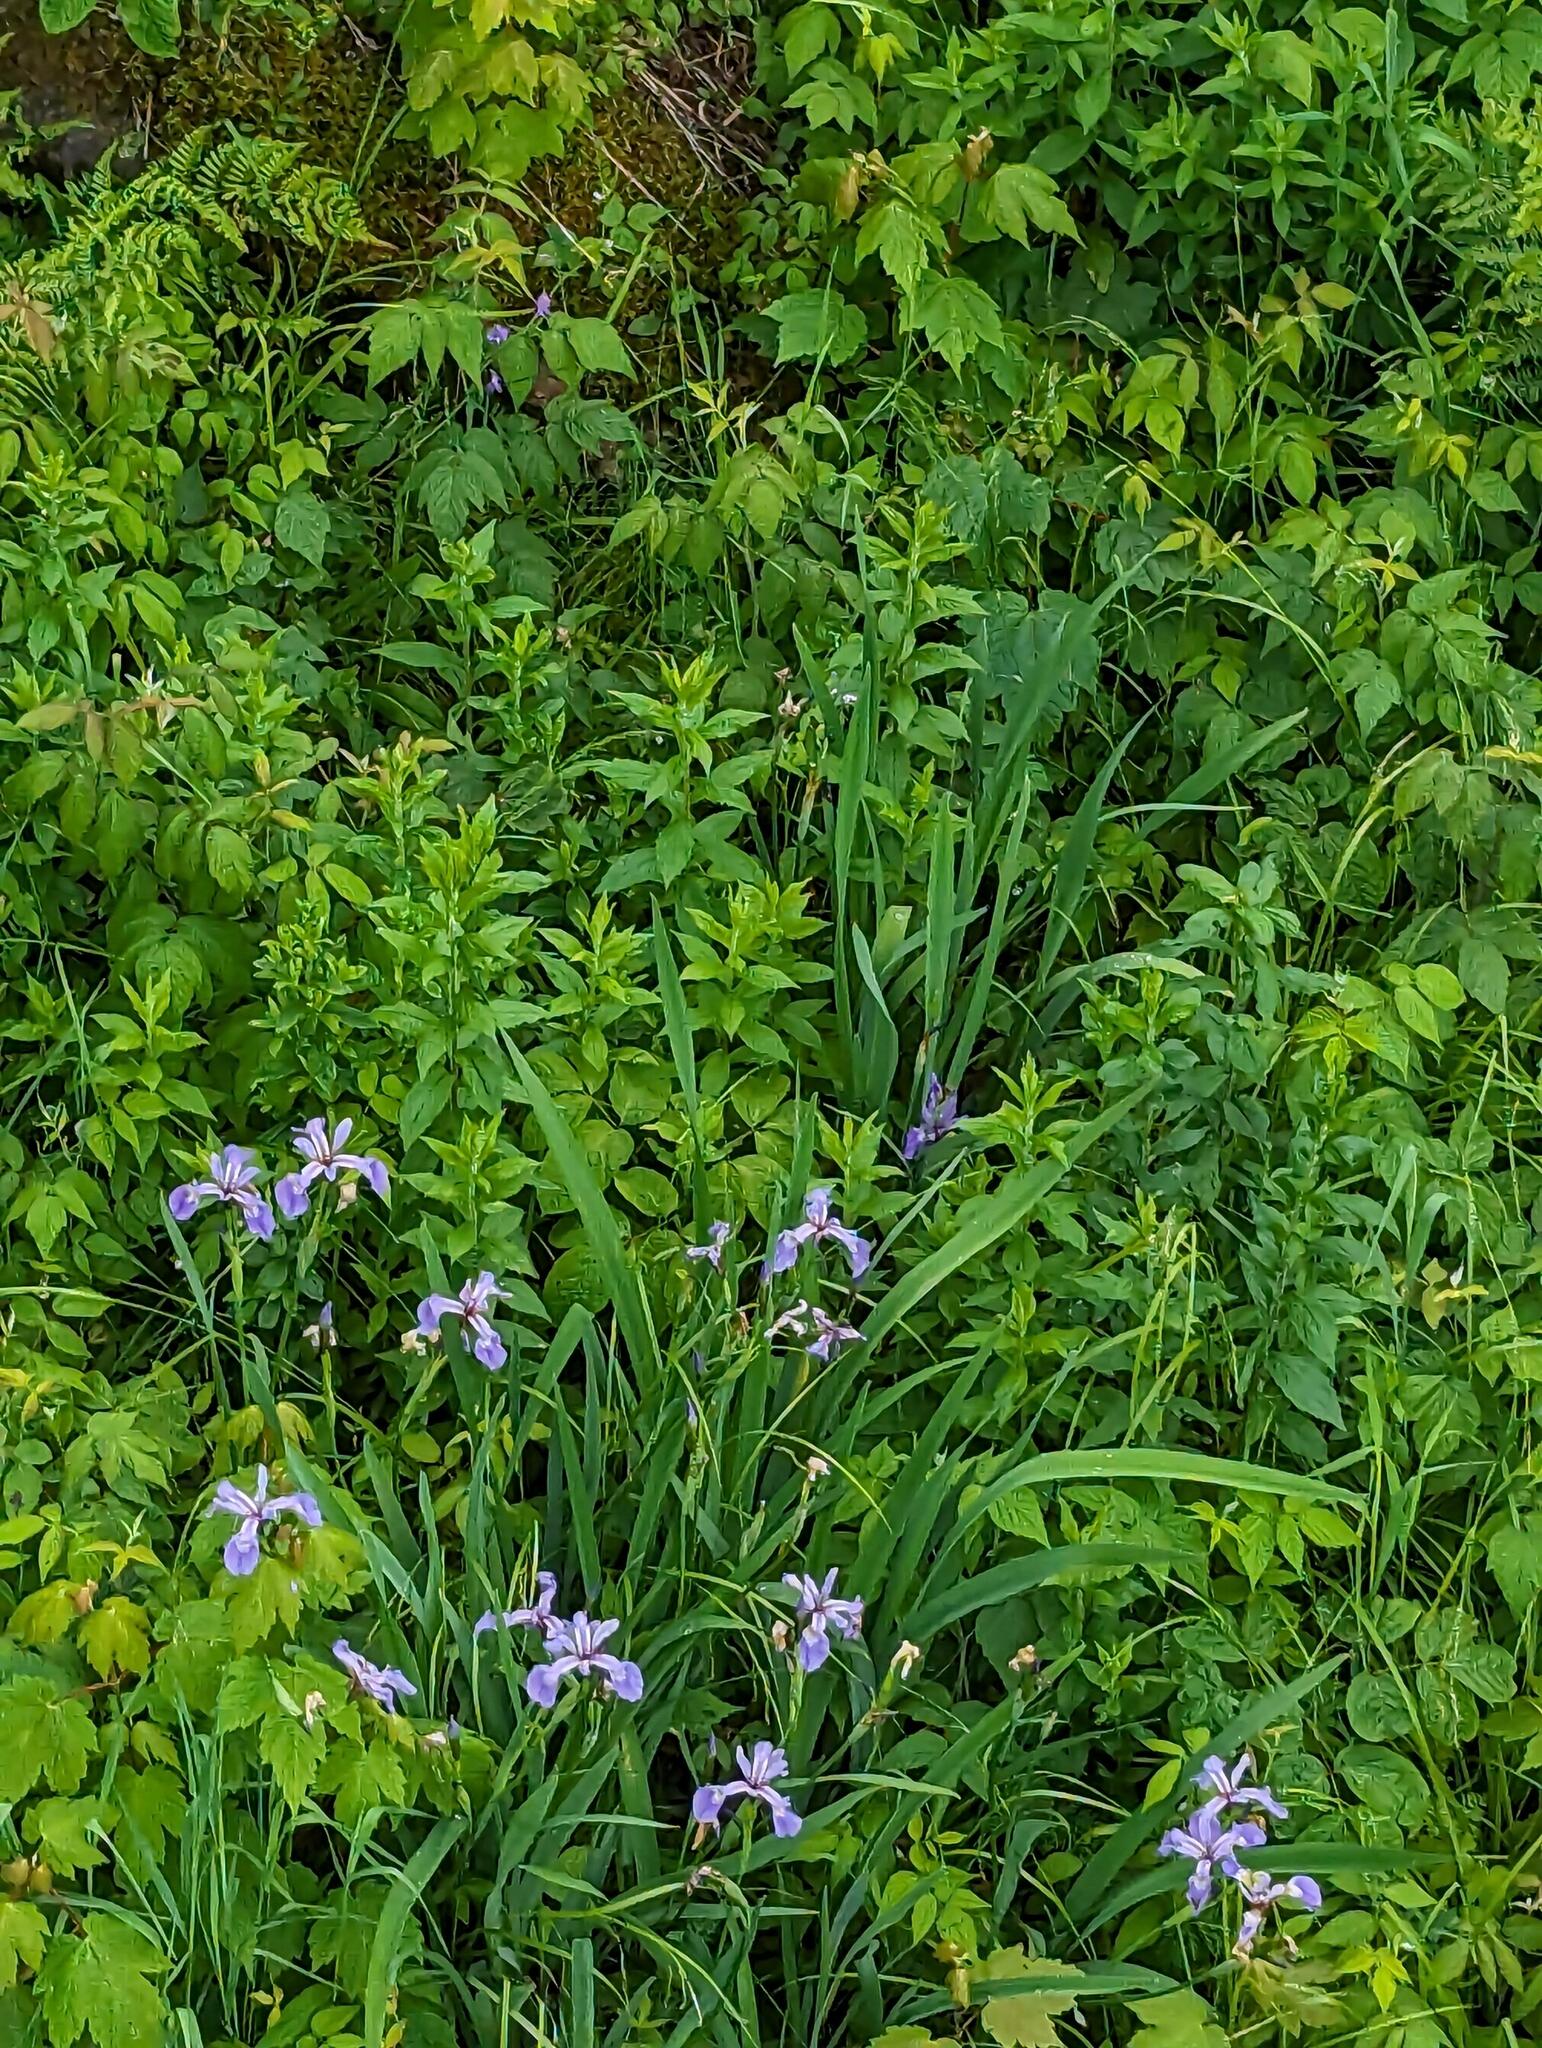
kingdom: Plantae
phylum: Tracheophyta
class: Liliopsida
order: Asparagales
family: Iridaceae
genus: Iris
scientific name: Iris versicolor
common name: Purple iris
